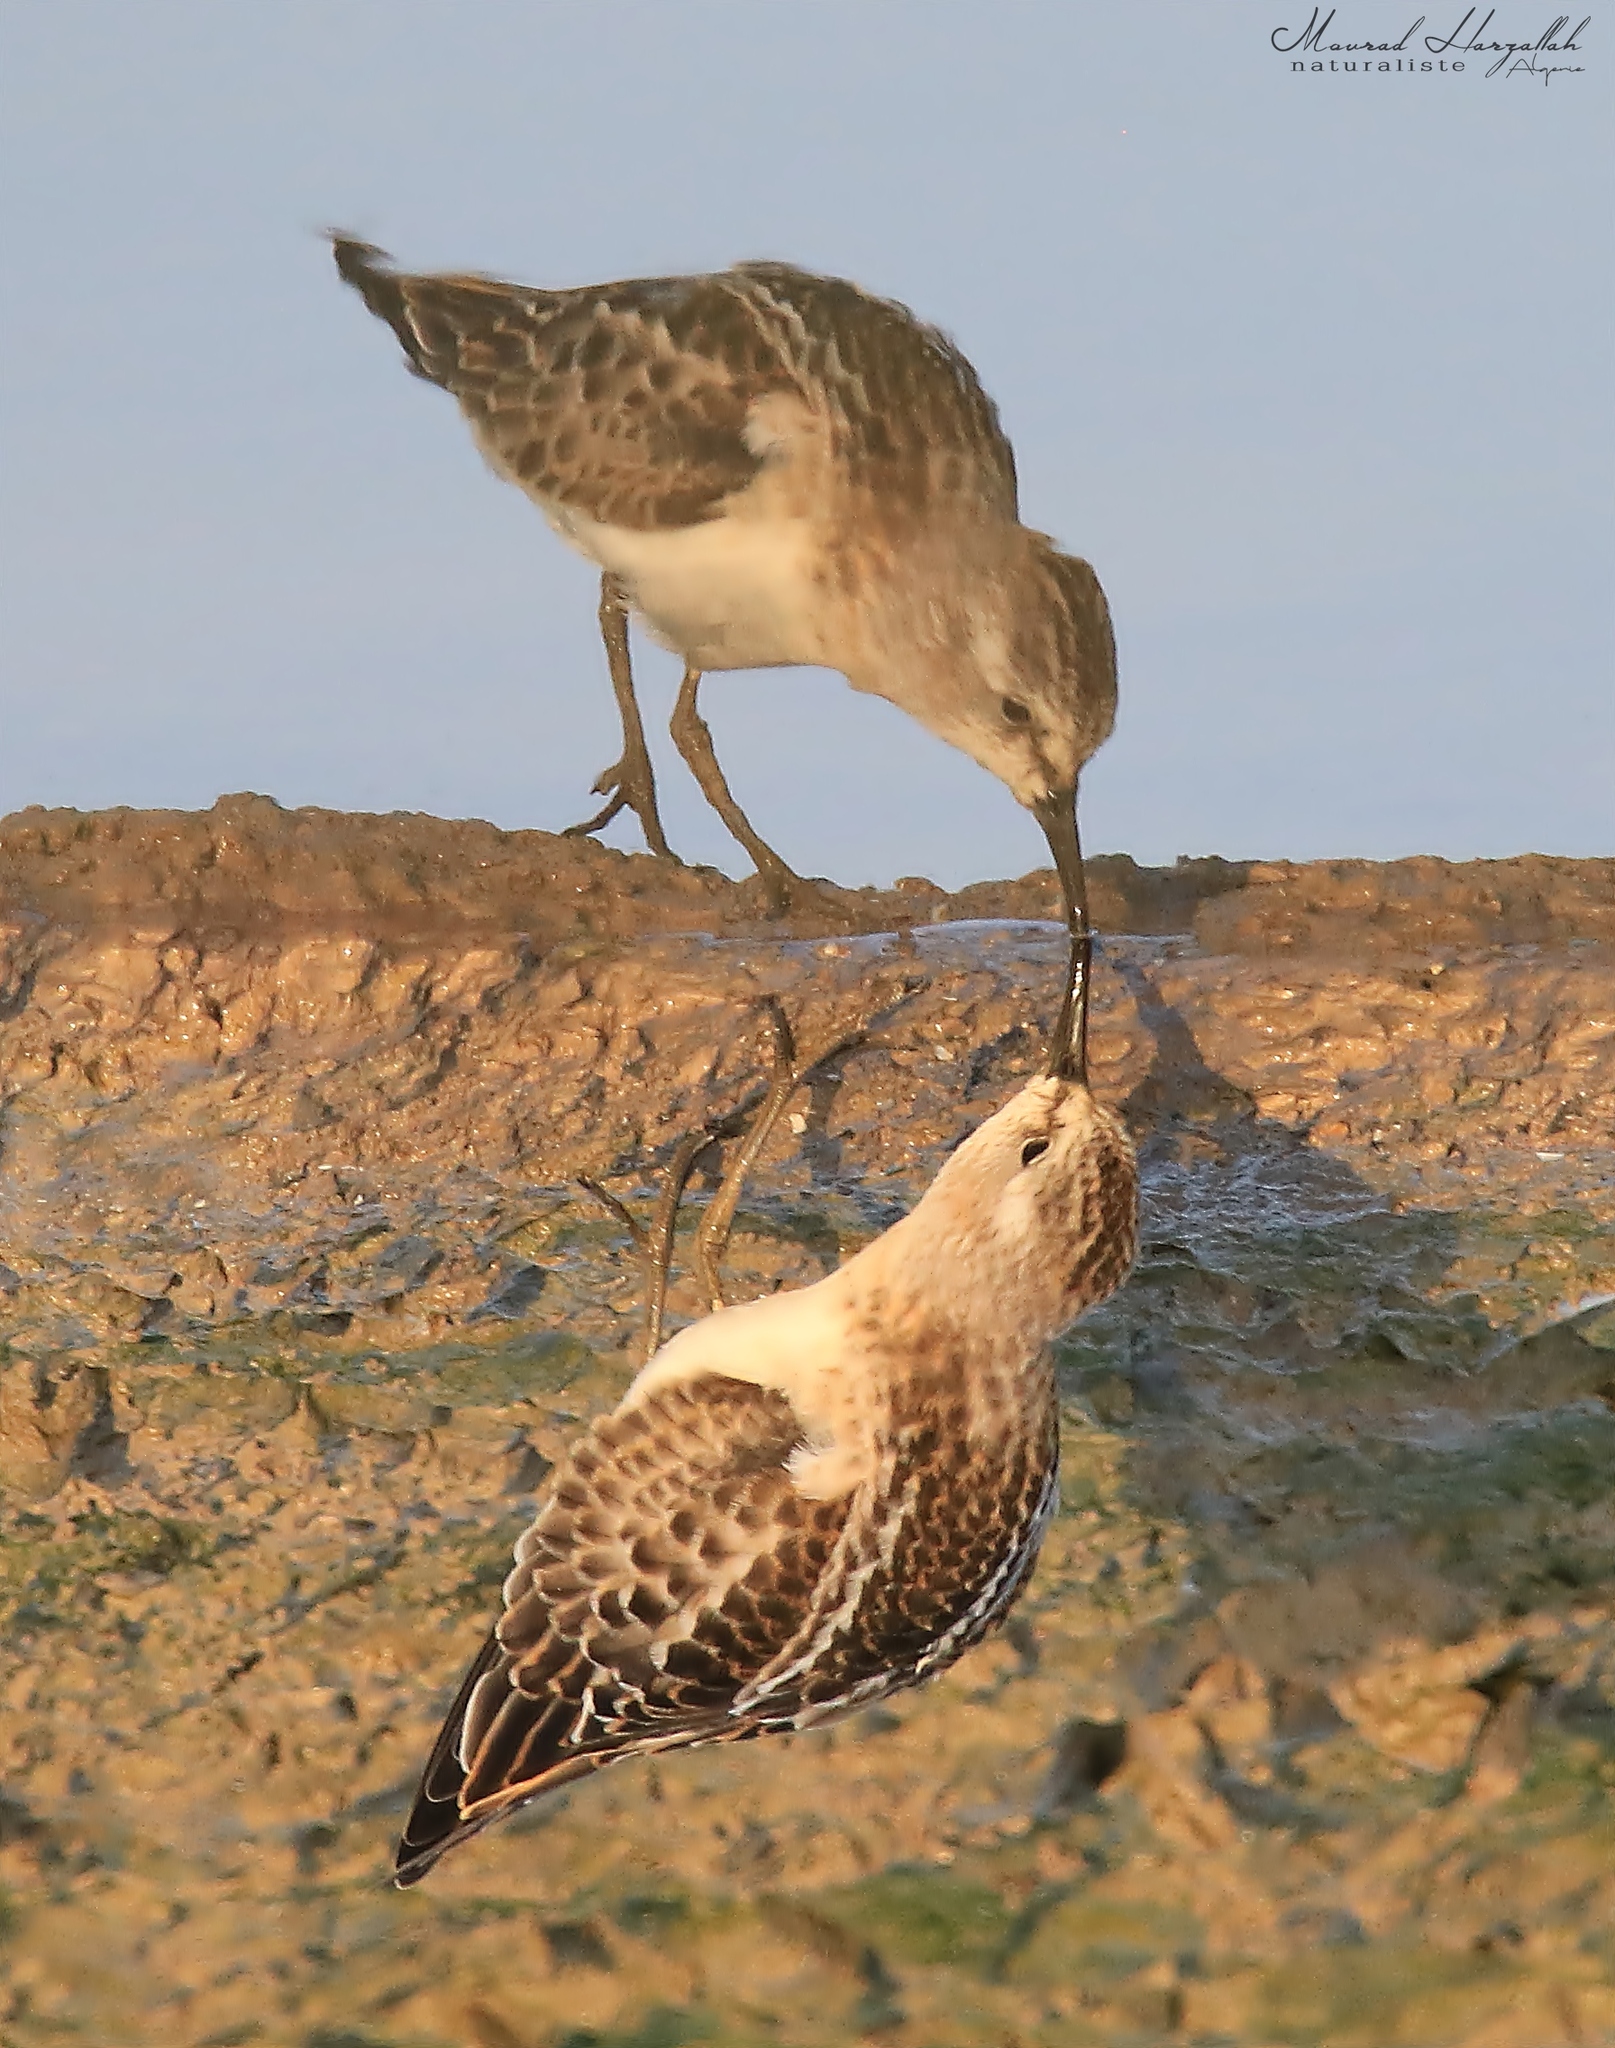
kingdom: Animalia
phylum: Chordata
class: Aves
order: Charadriiformes
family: Scolopacidae
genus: Calidris
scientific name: Calidris minuta
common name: Little stint
